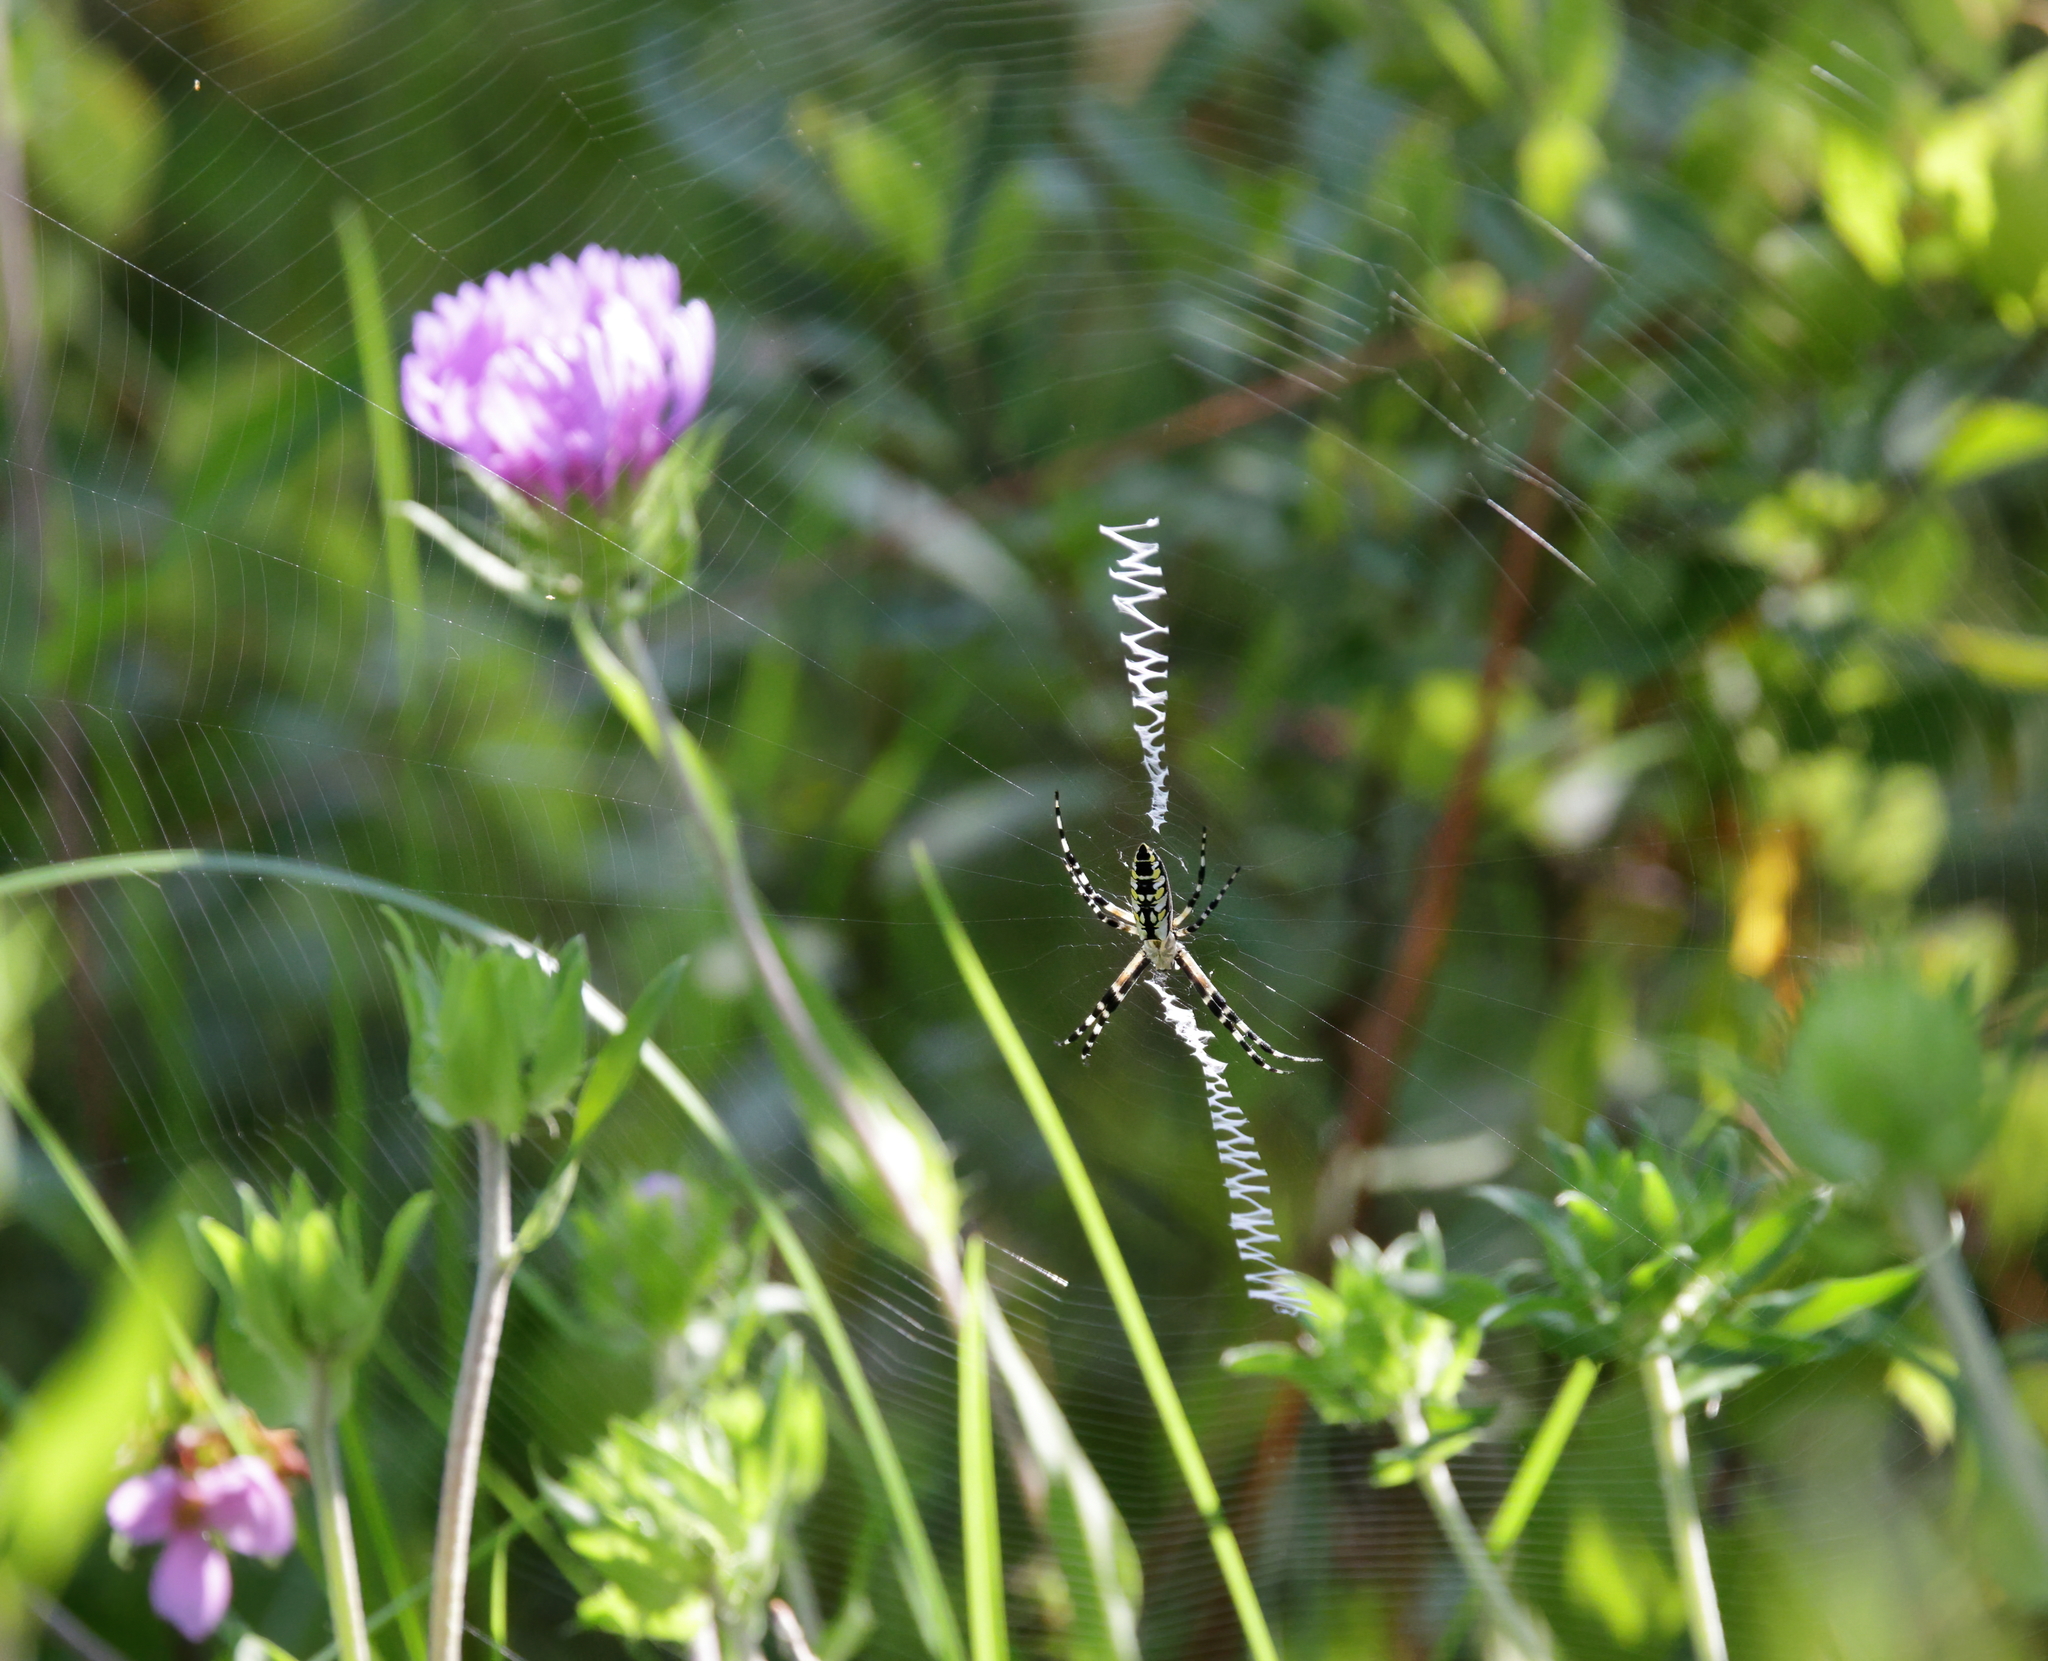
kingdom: Animalia
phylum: Arthropoda
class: Arachnida
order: Araneae
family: Araneidae
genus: Argiope
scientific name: Argiope aurantia
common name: Orb weavers
